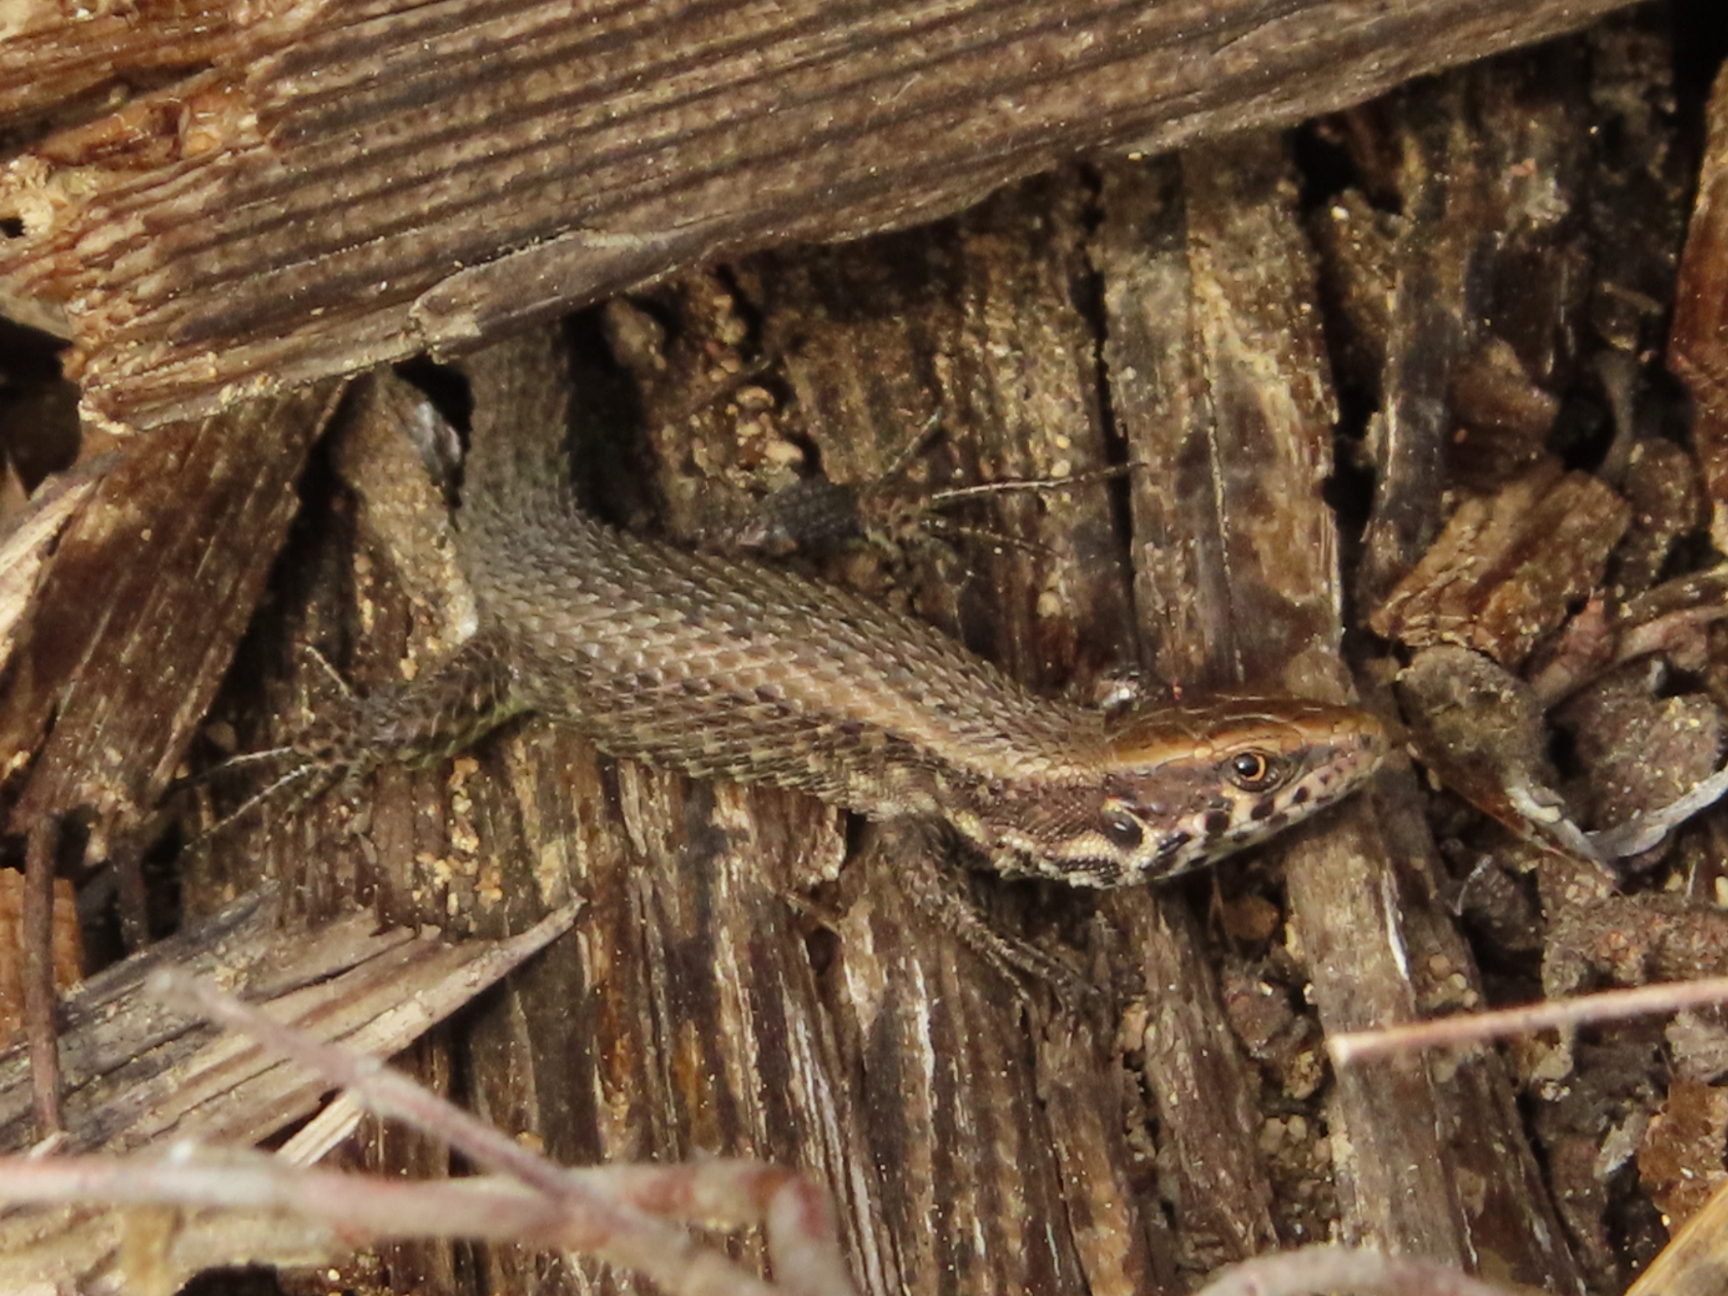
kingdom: Animalia
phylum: Chordata
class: Squamata
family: Lacertidae
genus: Algyroides
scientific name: Algyroides moreoticus
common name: Greek algyroides
